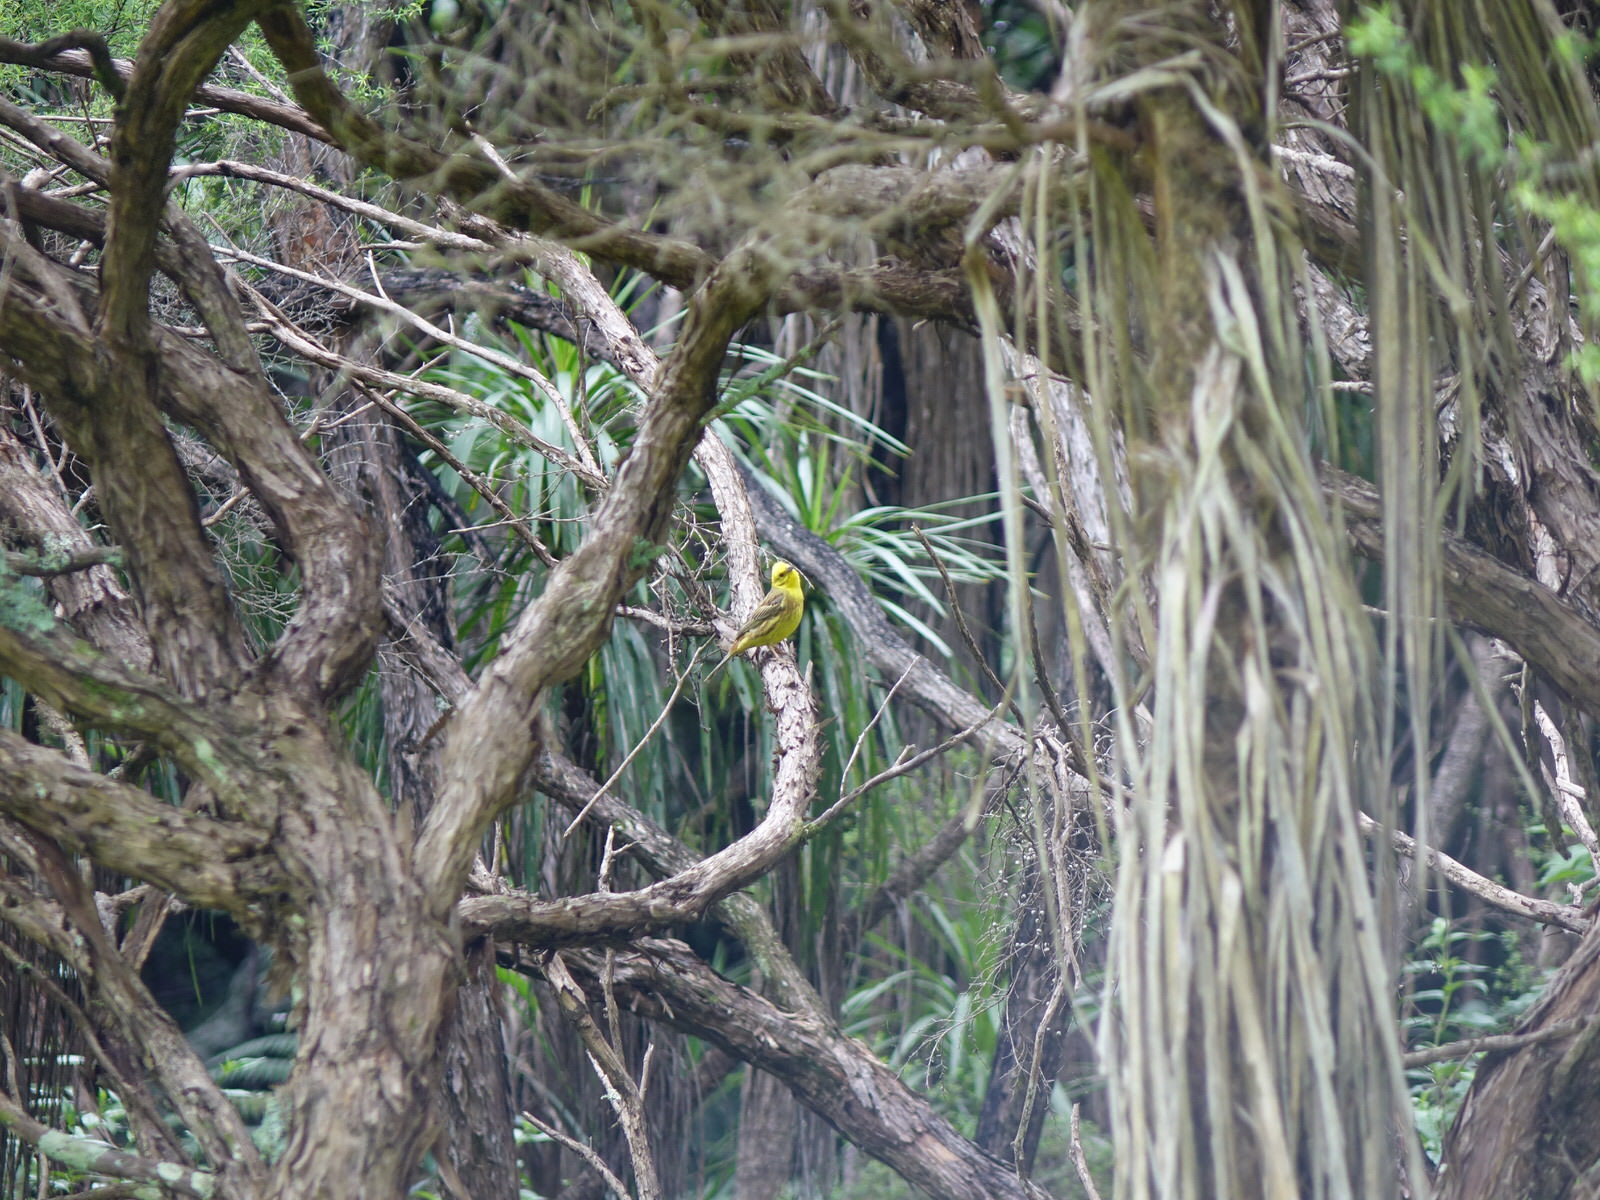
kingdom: Animalia
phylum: Chordata
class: Aves
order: Passeriformes
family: Emberizidae
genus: Emberiza
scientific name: Emberiza citrinella
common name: Yellowhammer
